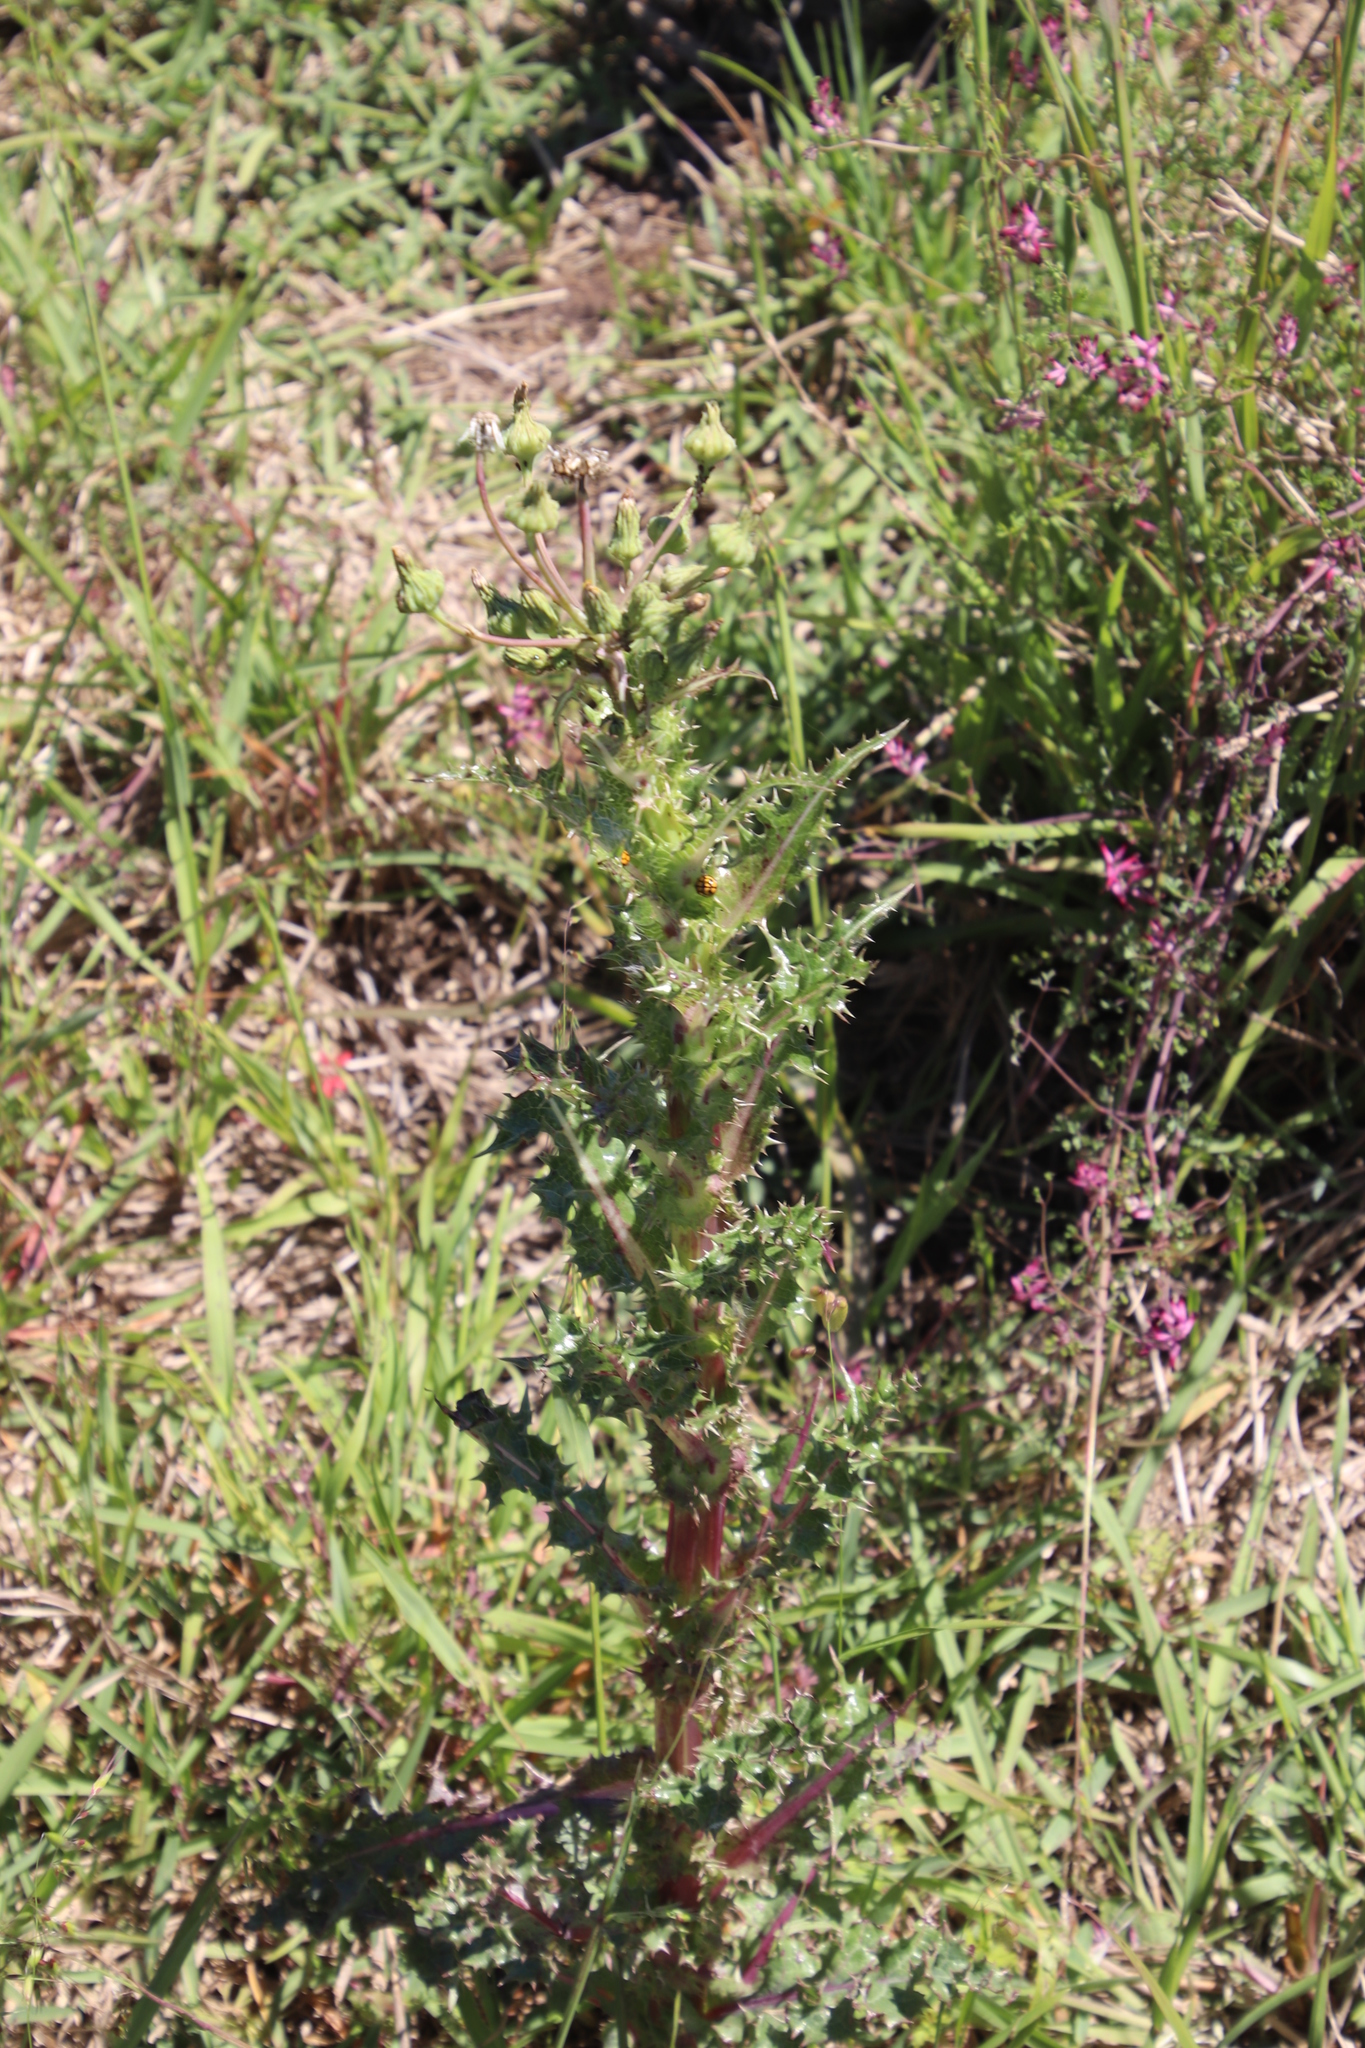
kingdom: Plantae
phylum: Tracheophyta
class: Magnoliopsida
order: Asterales
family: Asteraceae
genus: Sonchus
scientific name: Sonchus asper
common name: Prickly sow-thistle
